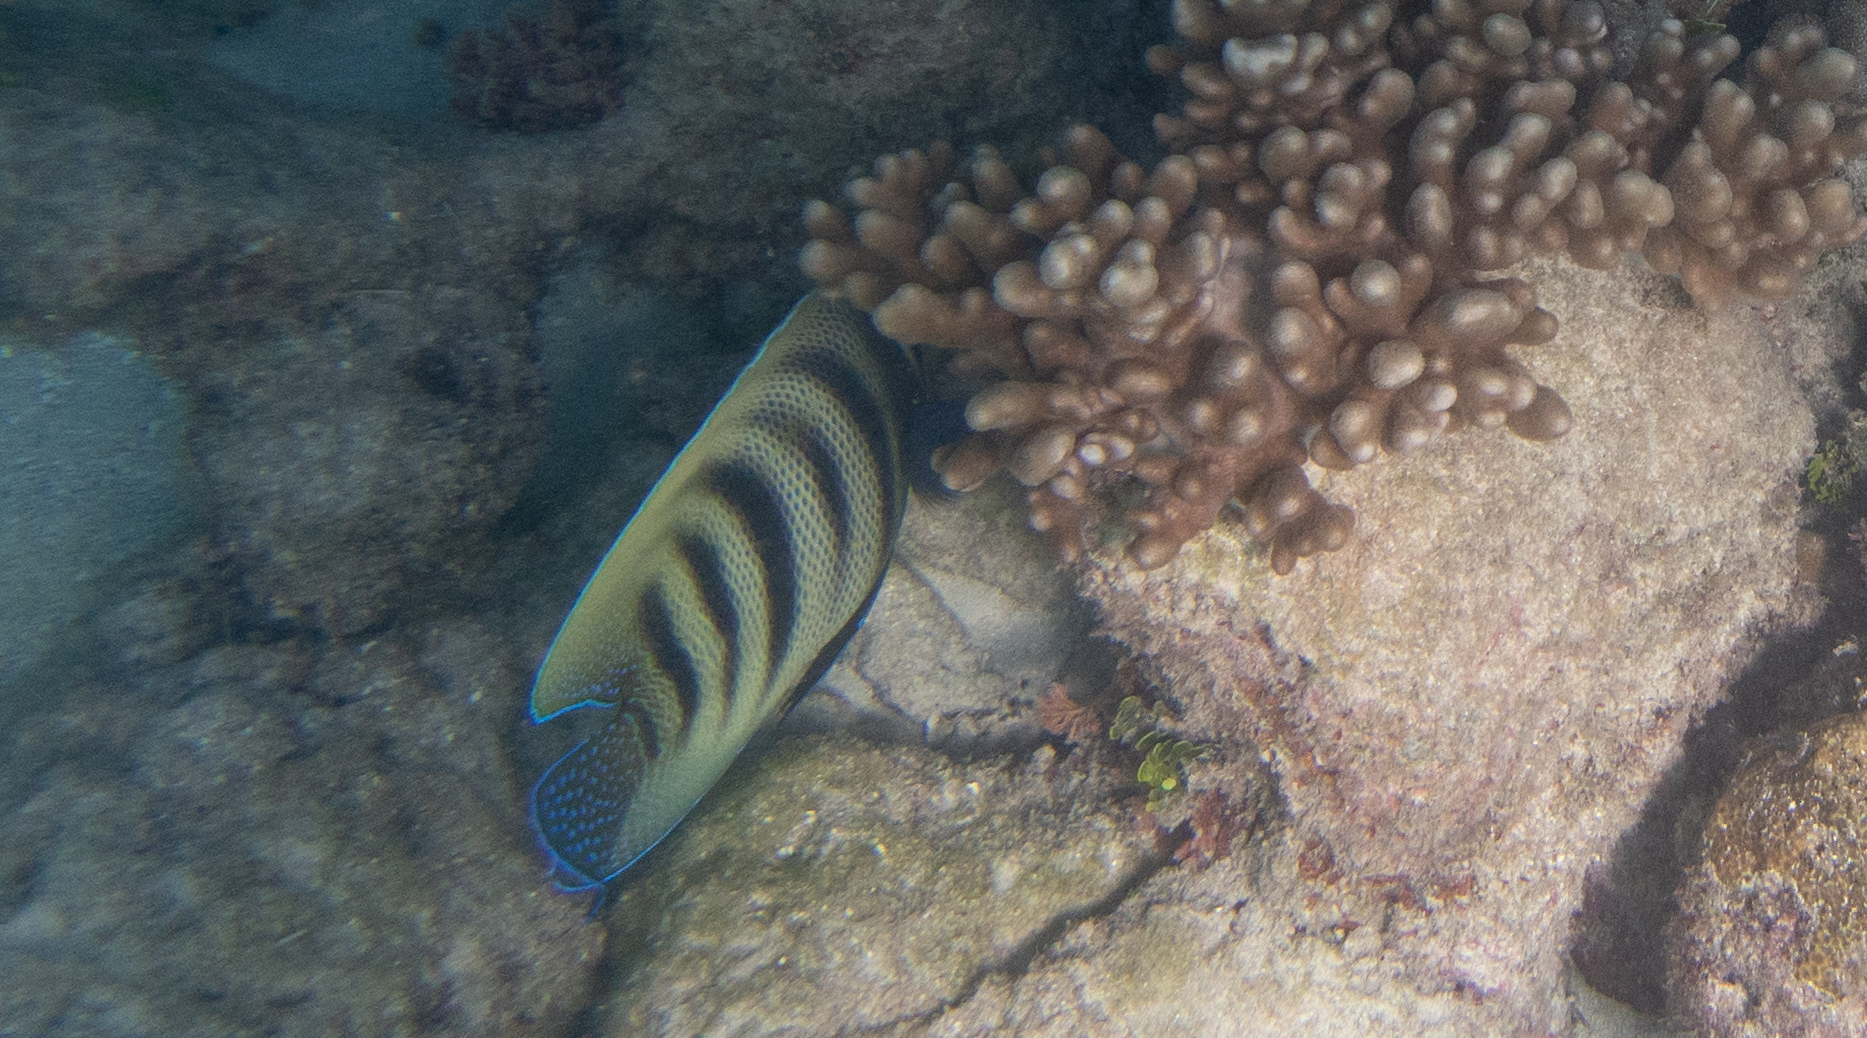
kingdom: Animalia
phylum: Chordata
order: Perciformes
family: Pomacanthidae
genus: Pomacanthus
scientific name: Pomacanthus sexstriatus
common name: Six-banded angelfish
